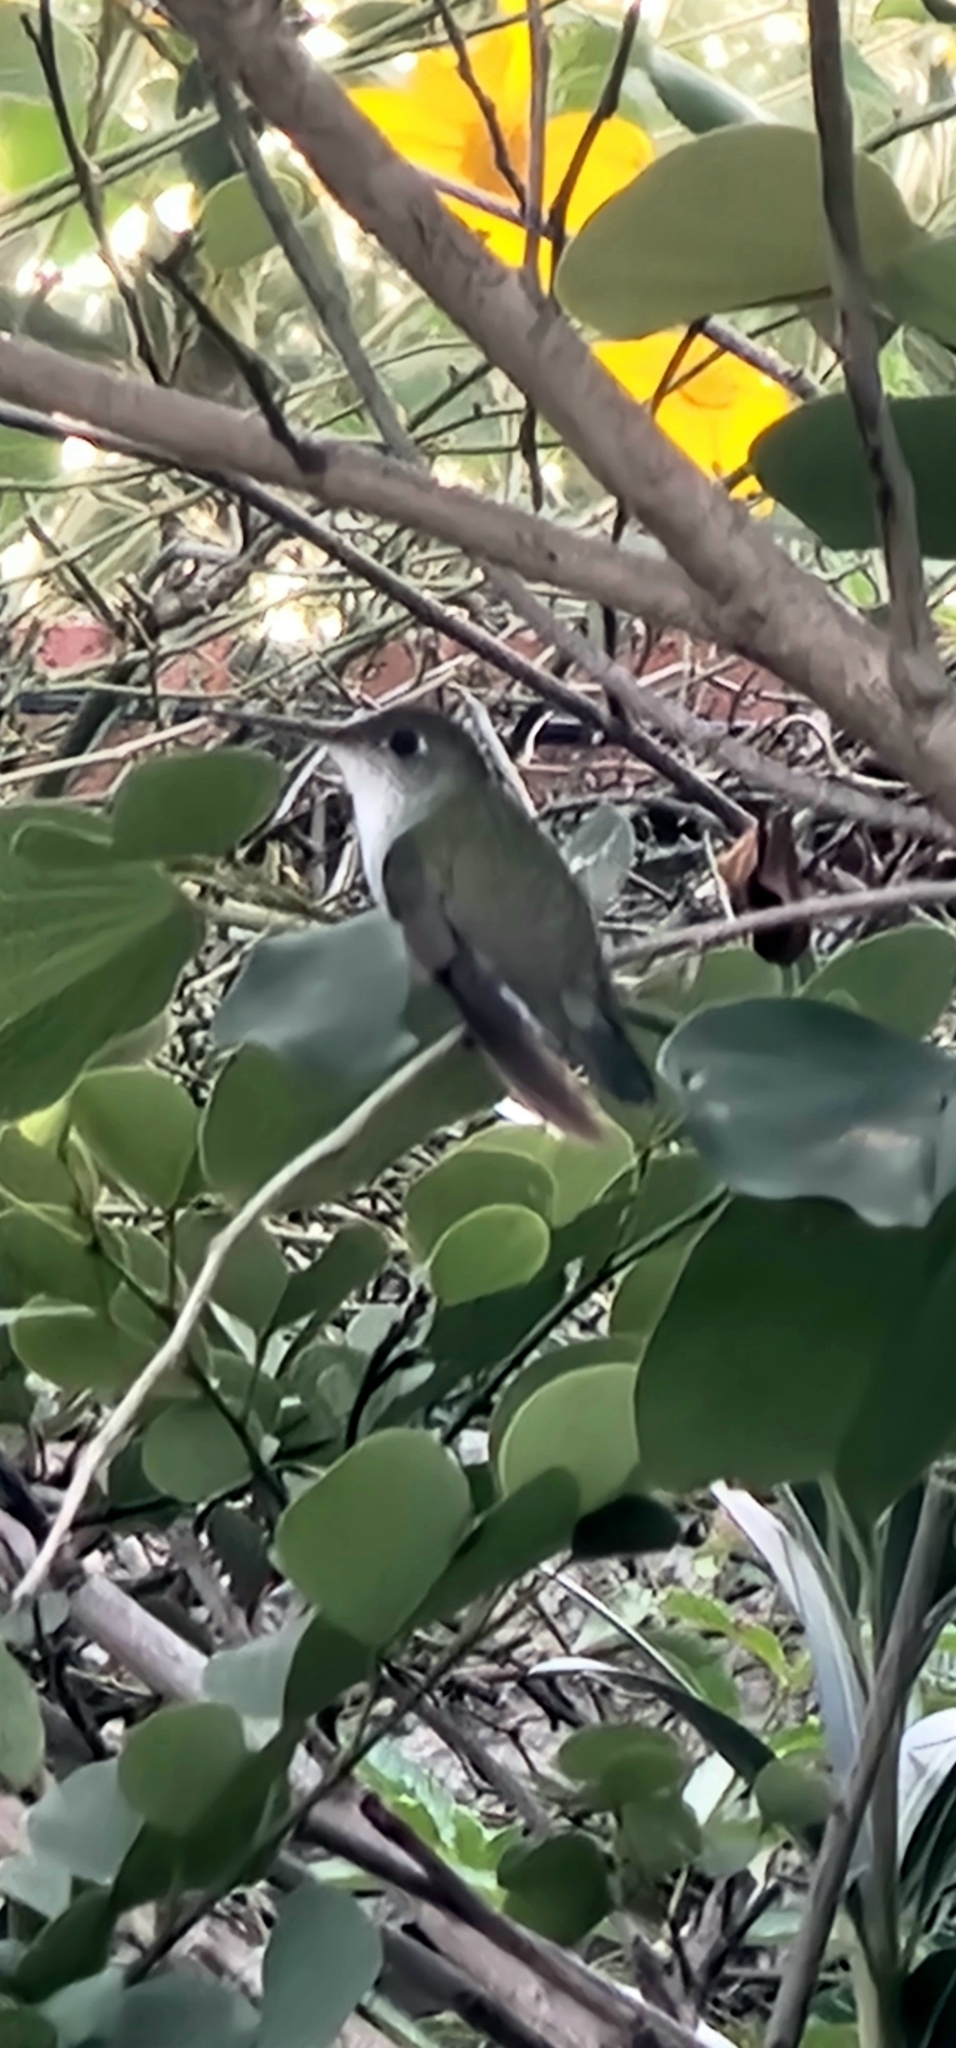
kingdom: Animalia
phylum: Chordata
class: Aves
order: Apodiformes
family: Trochilidae
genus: Elliotomyia
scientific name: Elliotomyia chionogaster
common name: White-bellied hummingbird
